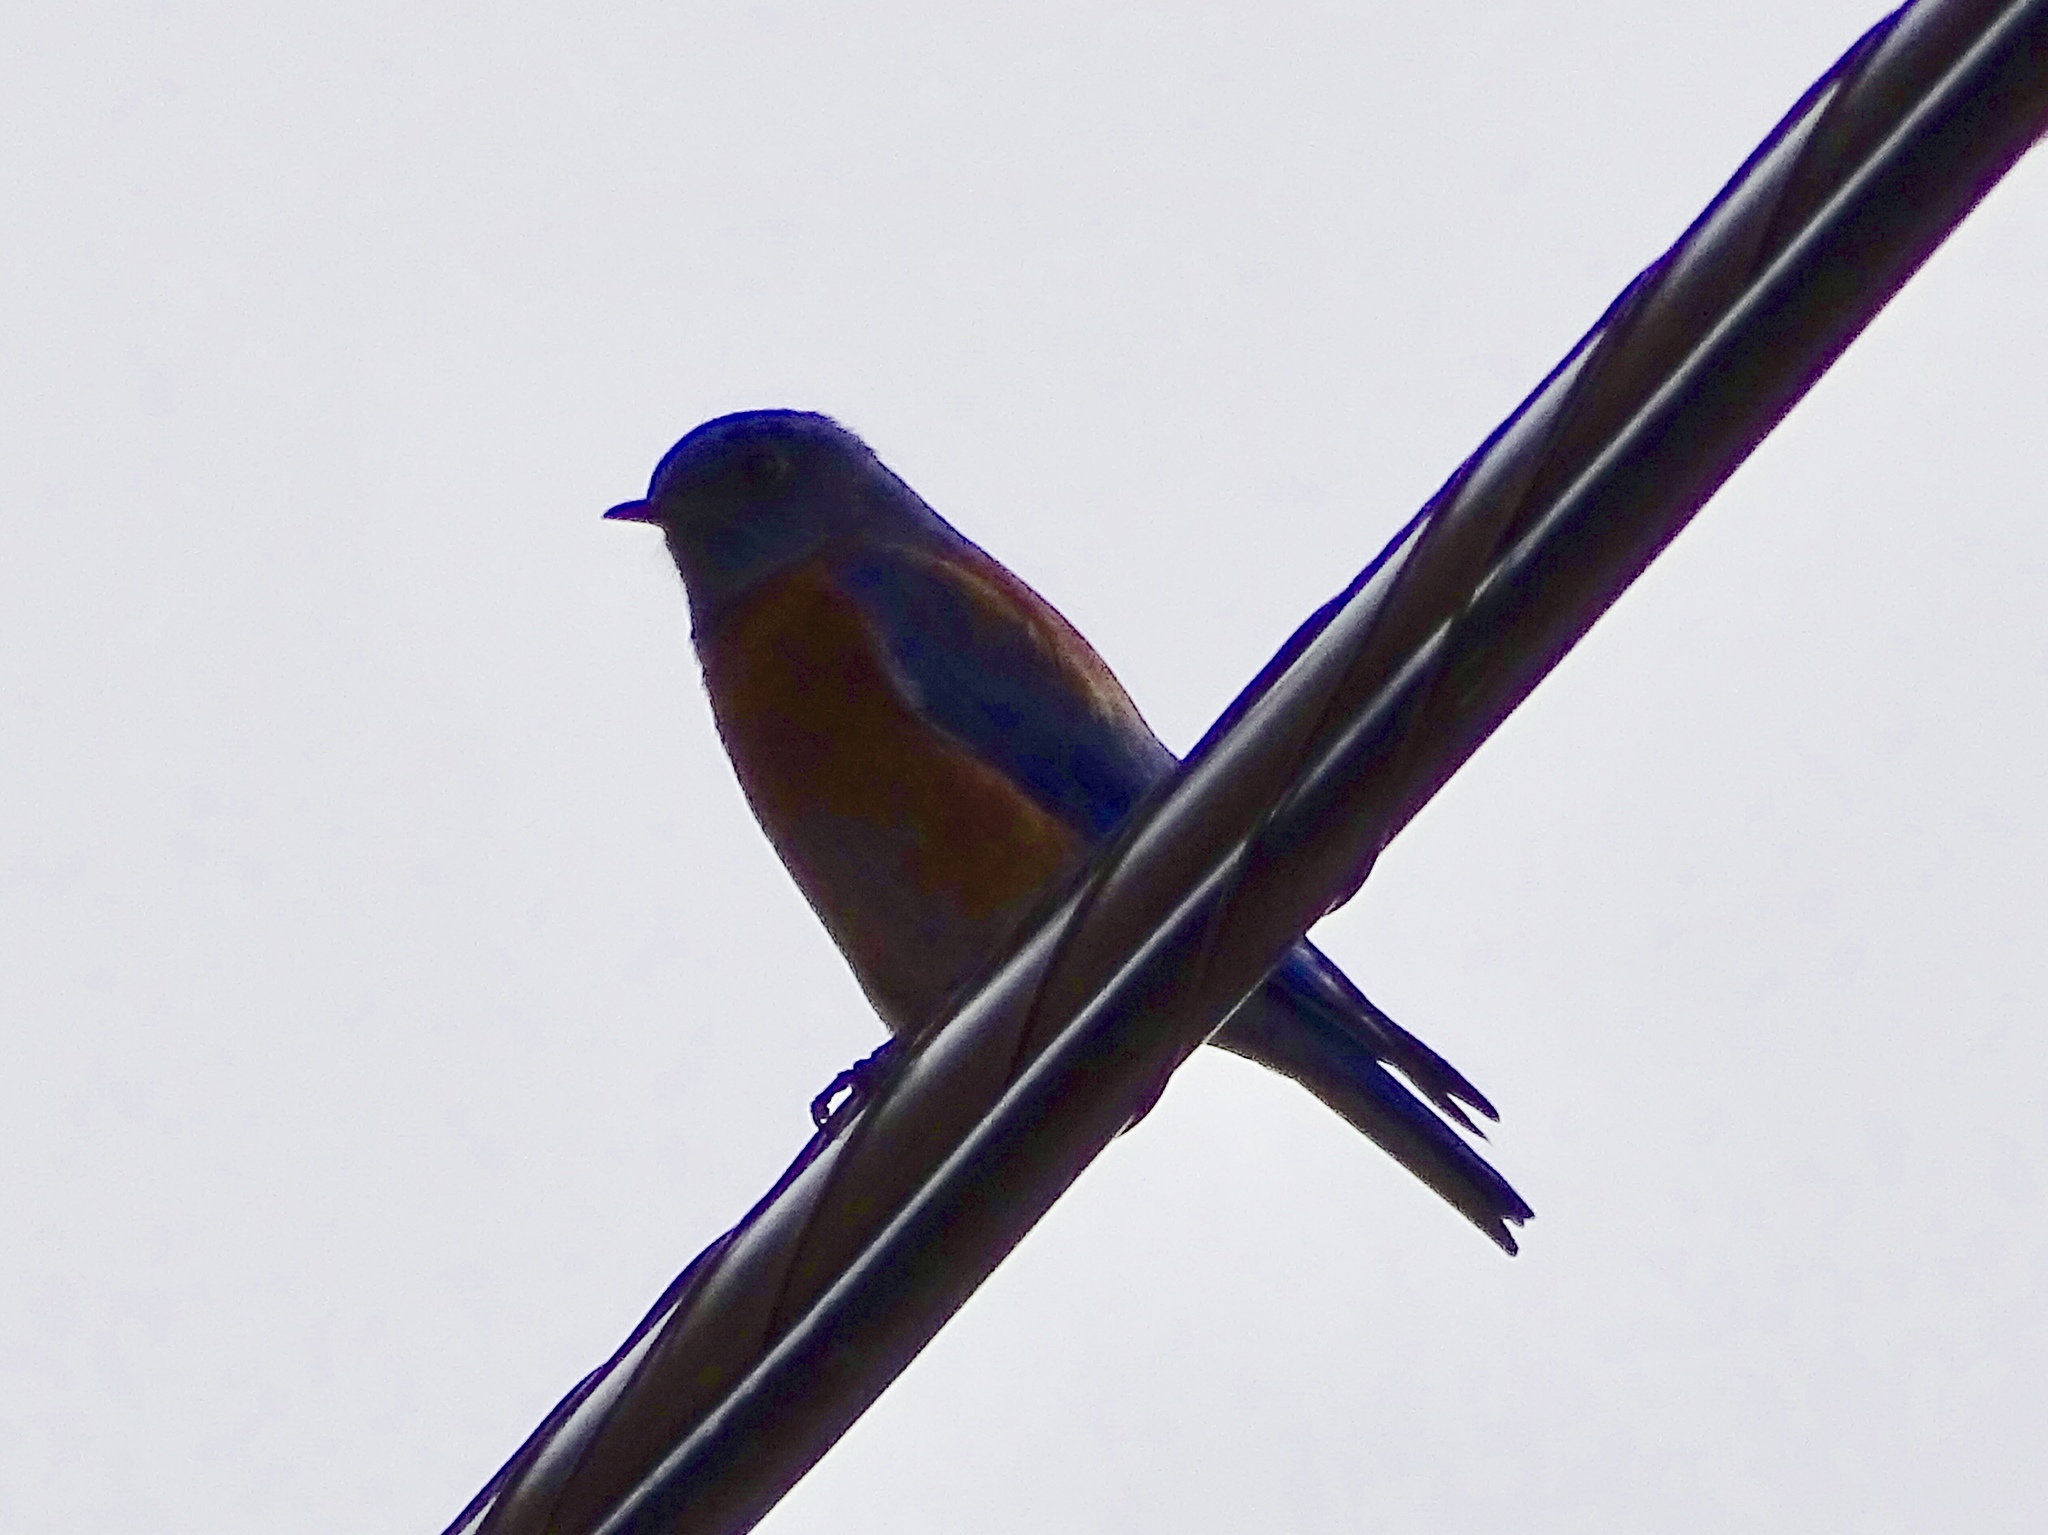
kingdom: Animalia
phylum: Chordata
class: Aves
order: Passeriformes
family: Turdidae
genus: Sialia
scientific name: Sialia mexicana
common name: Western bluebird
